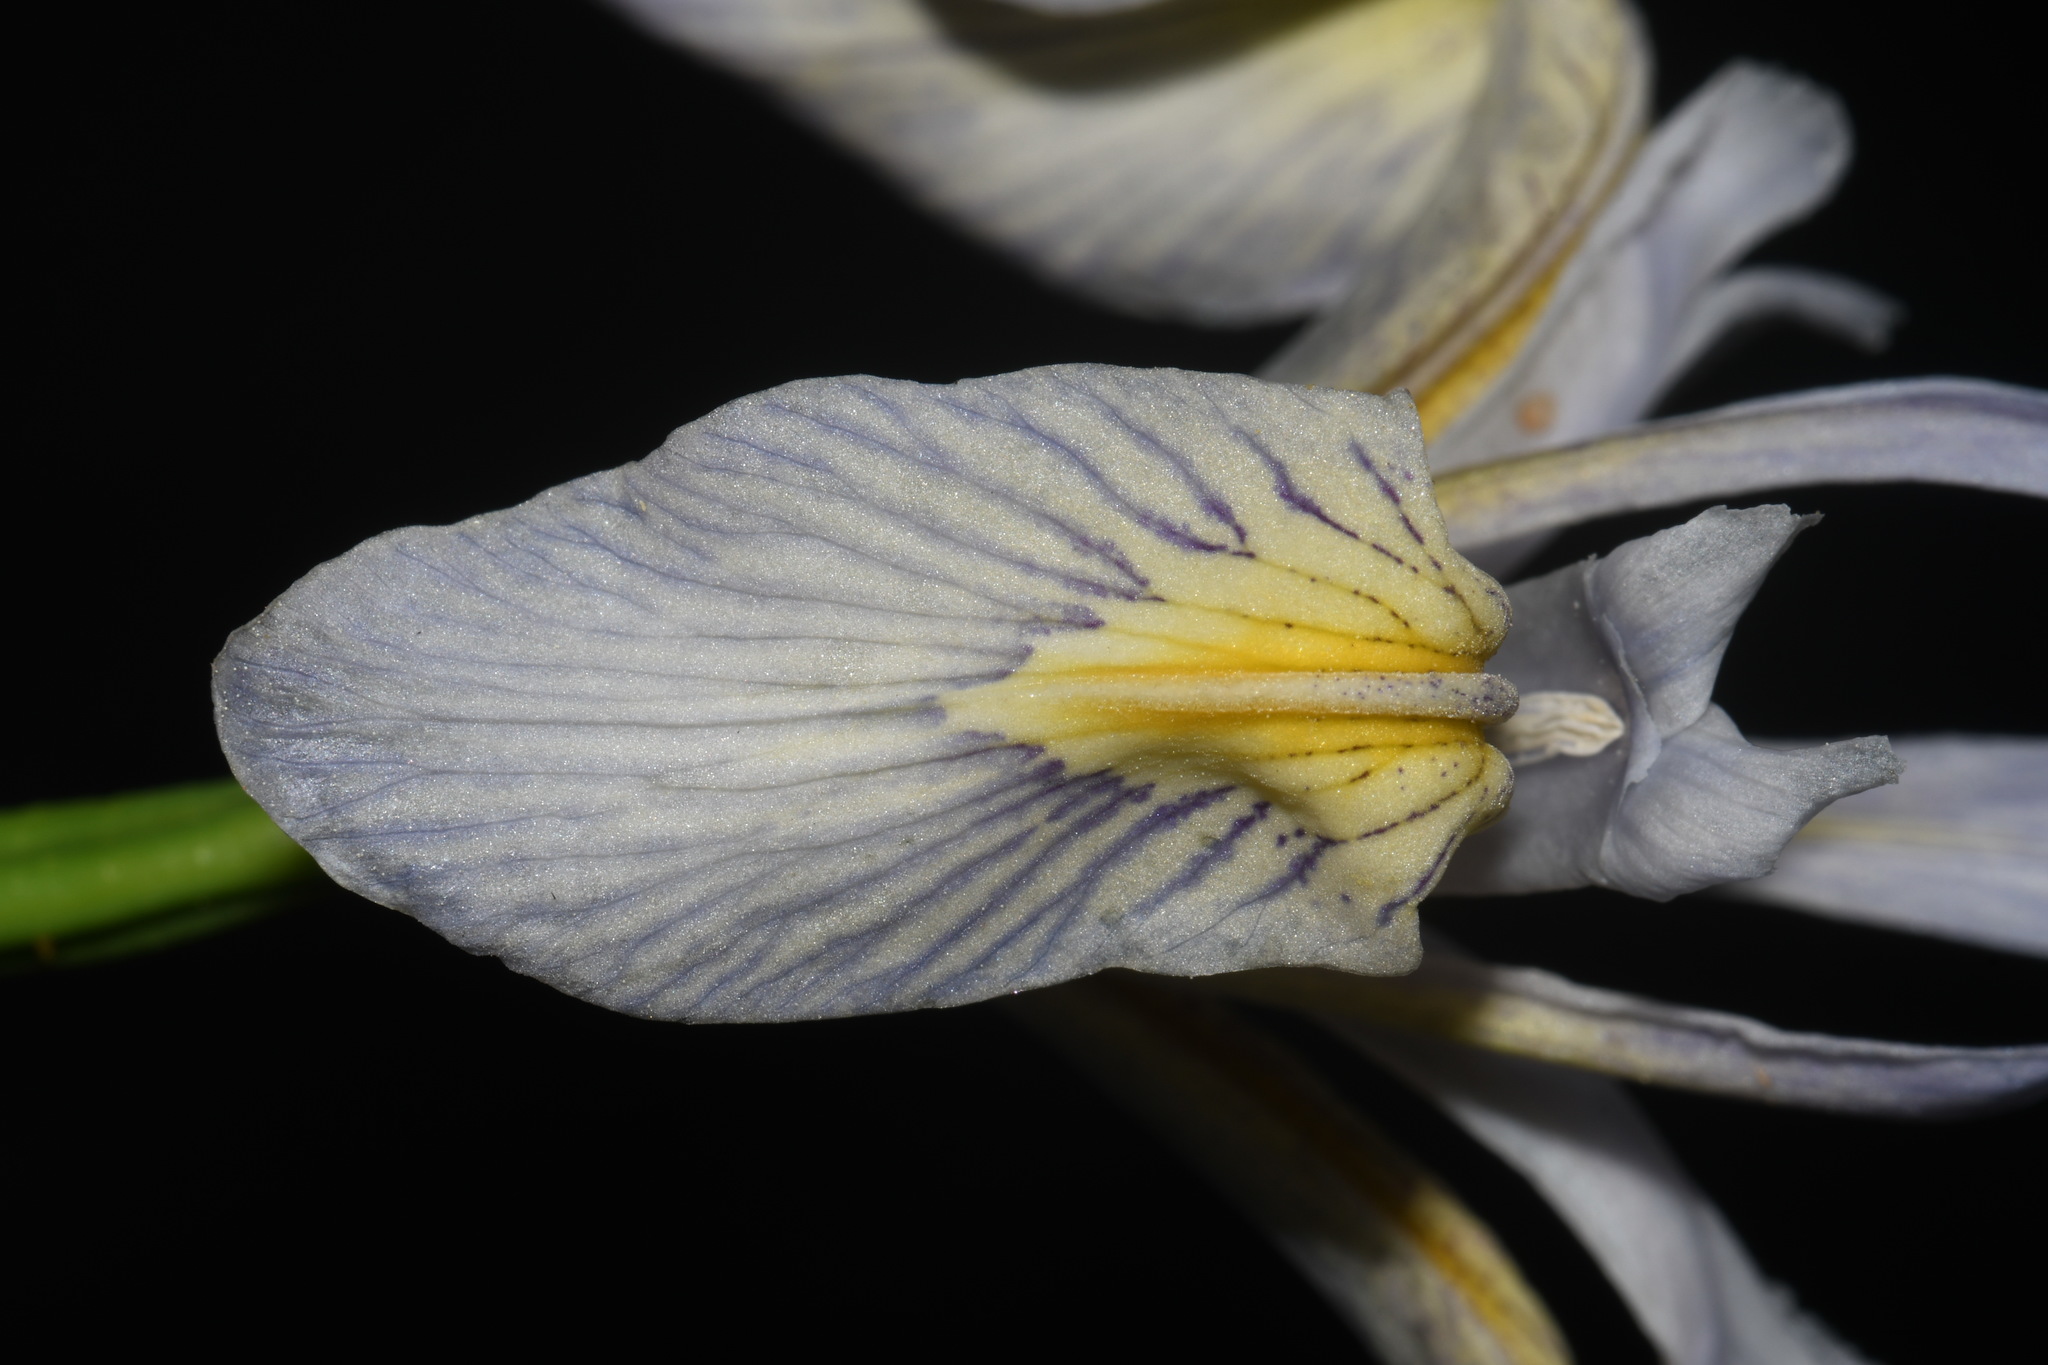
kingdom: Plantae
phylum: Tracheophyta
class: Liliopsida
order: Asparagales
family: Iridaceae
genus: Iris
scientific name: Iris missouriensis
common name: Rocky mountain iris
